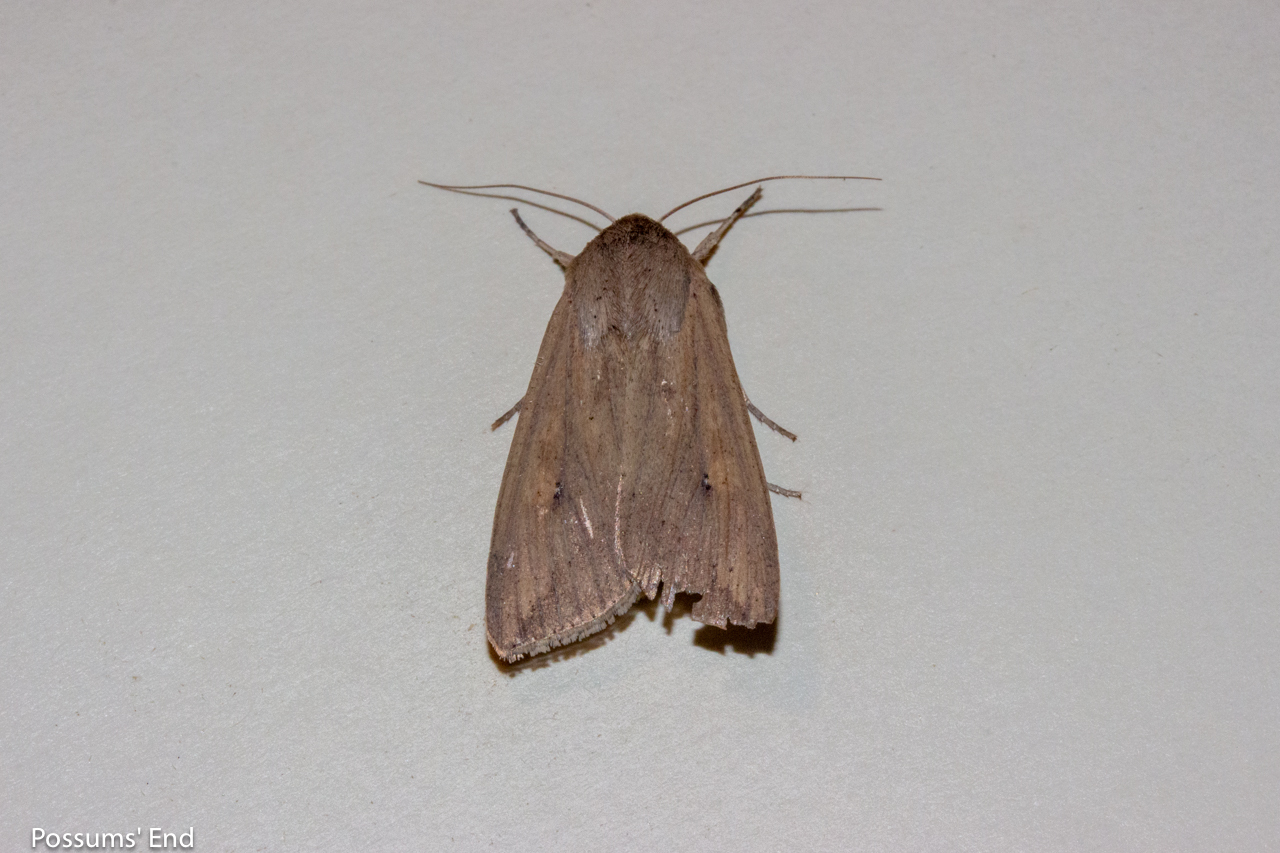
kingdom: Animalia
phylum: Arthropoda
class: Insecta
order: Lepidoptera
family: Noctuidae
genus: Mythimna
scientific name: Mythimna separata
